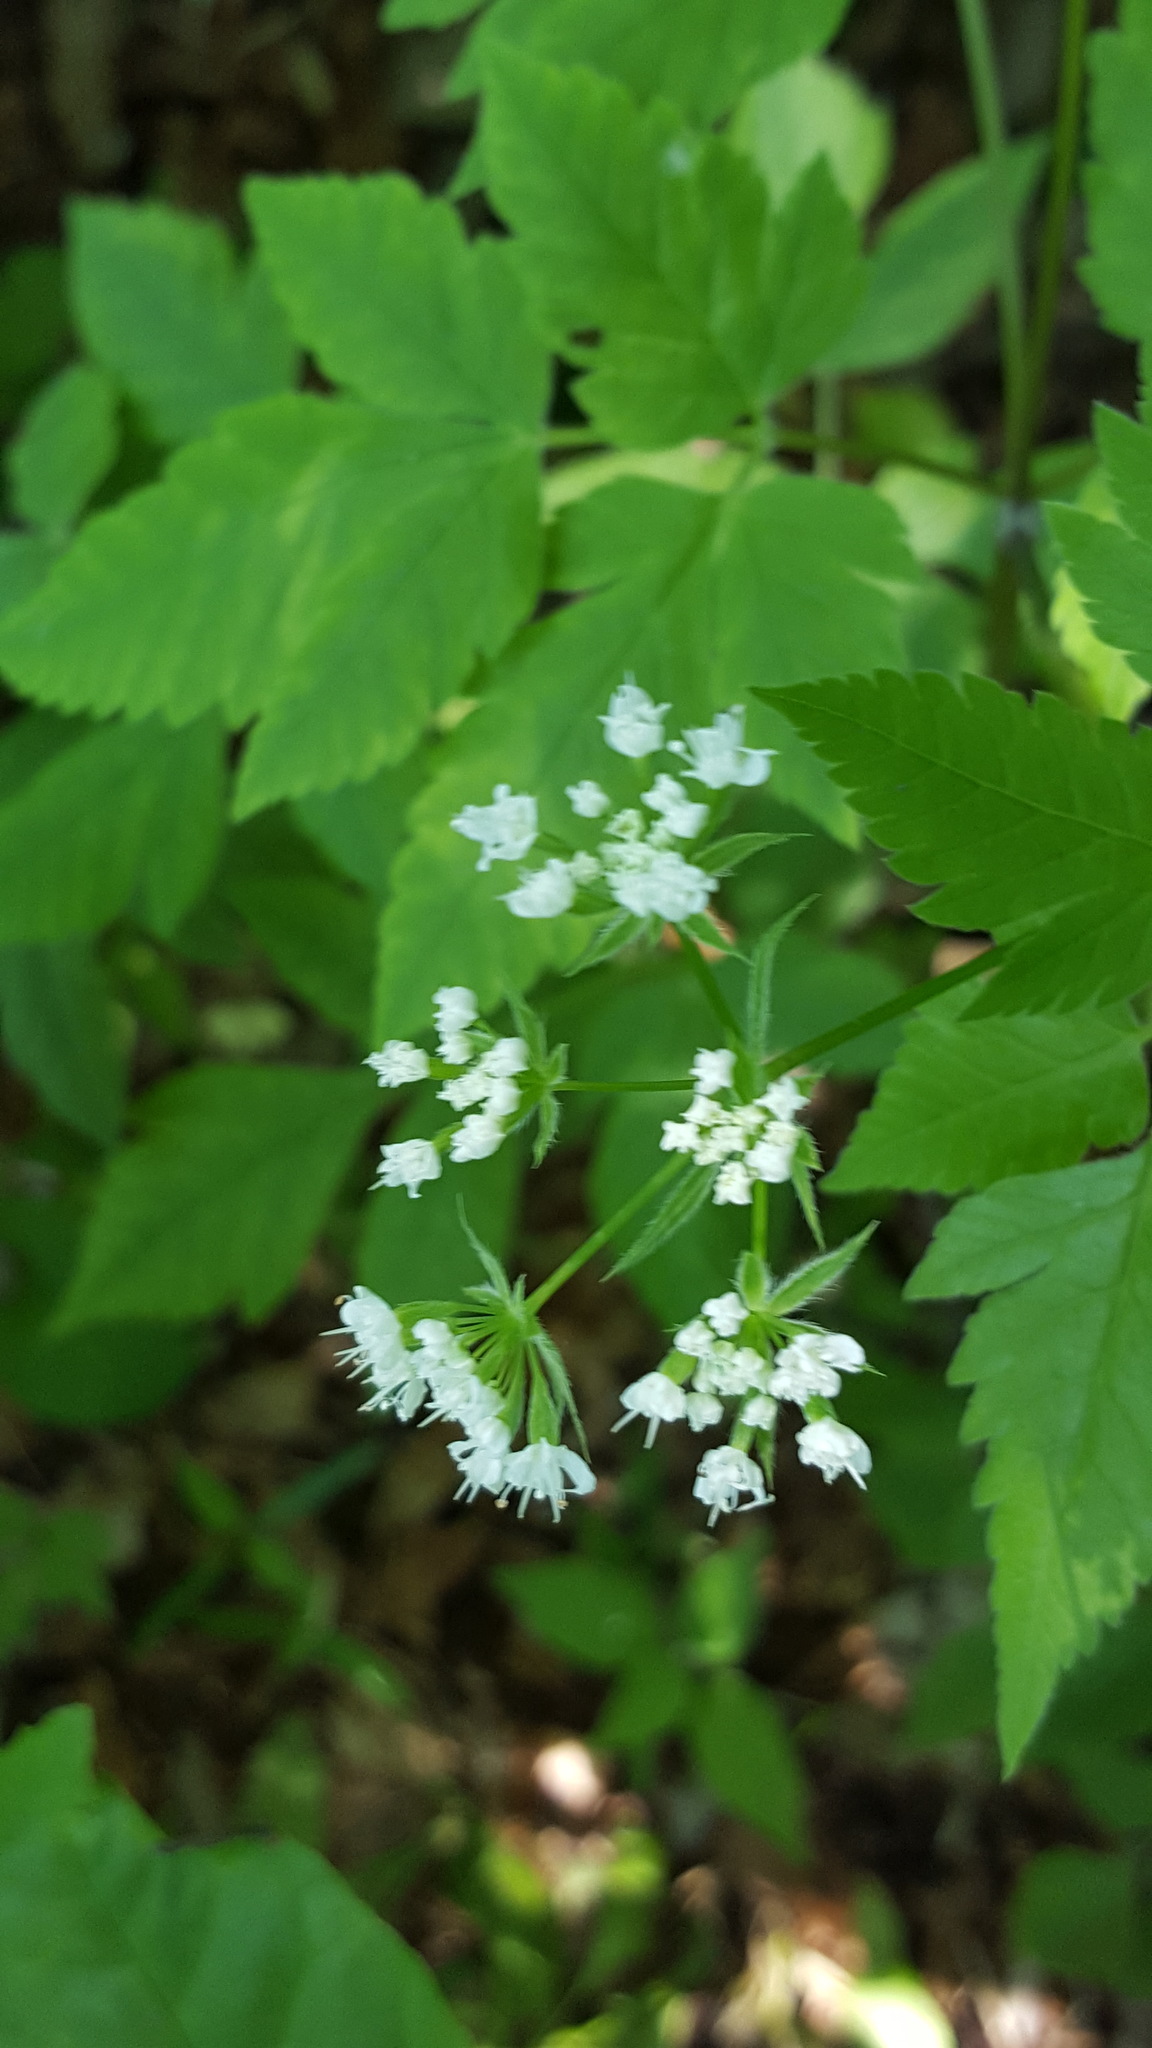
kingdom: Plantae
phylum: Tracheophyta
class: Magnoliopsida
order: Apiales
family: Apiaceae
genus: Osmorhiza
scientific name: Osmorhiza longistylis
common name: Smooth sweet cicely
